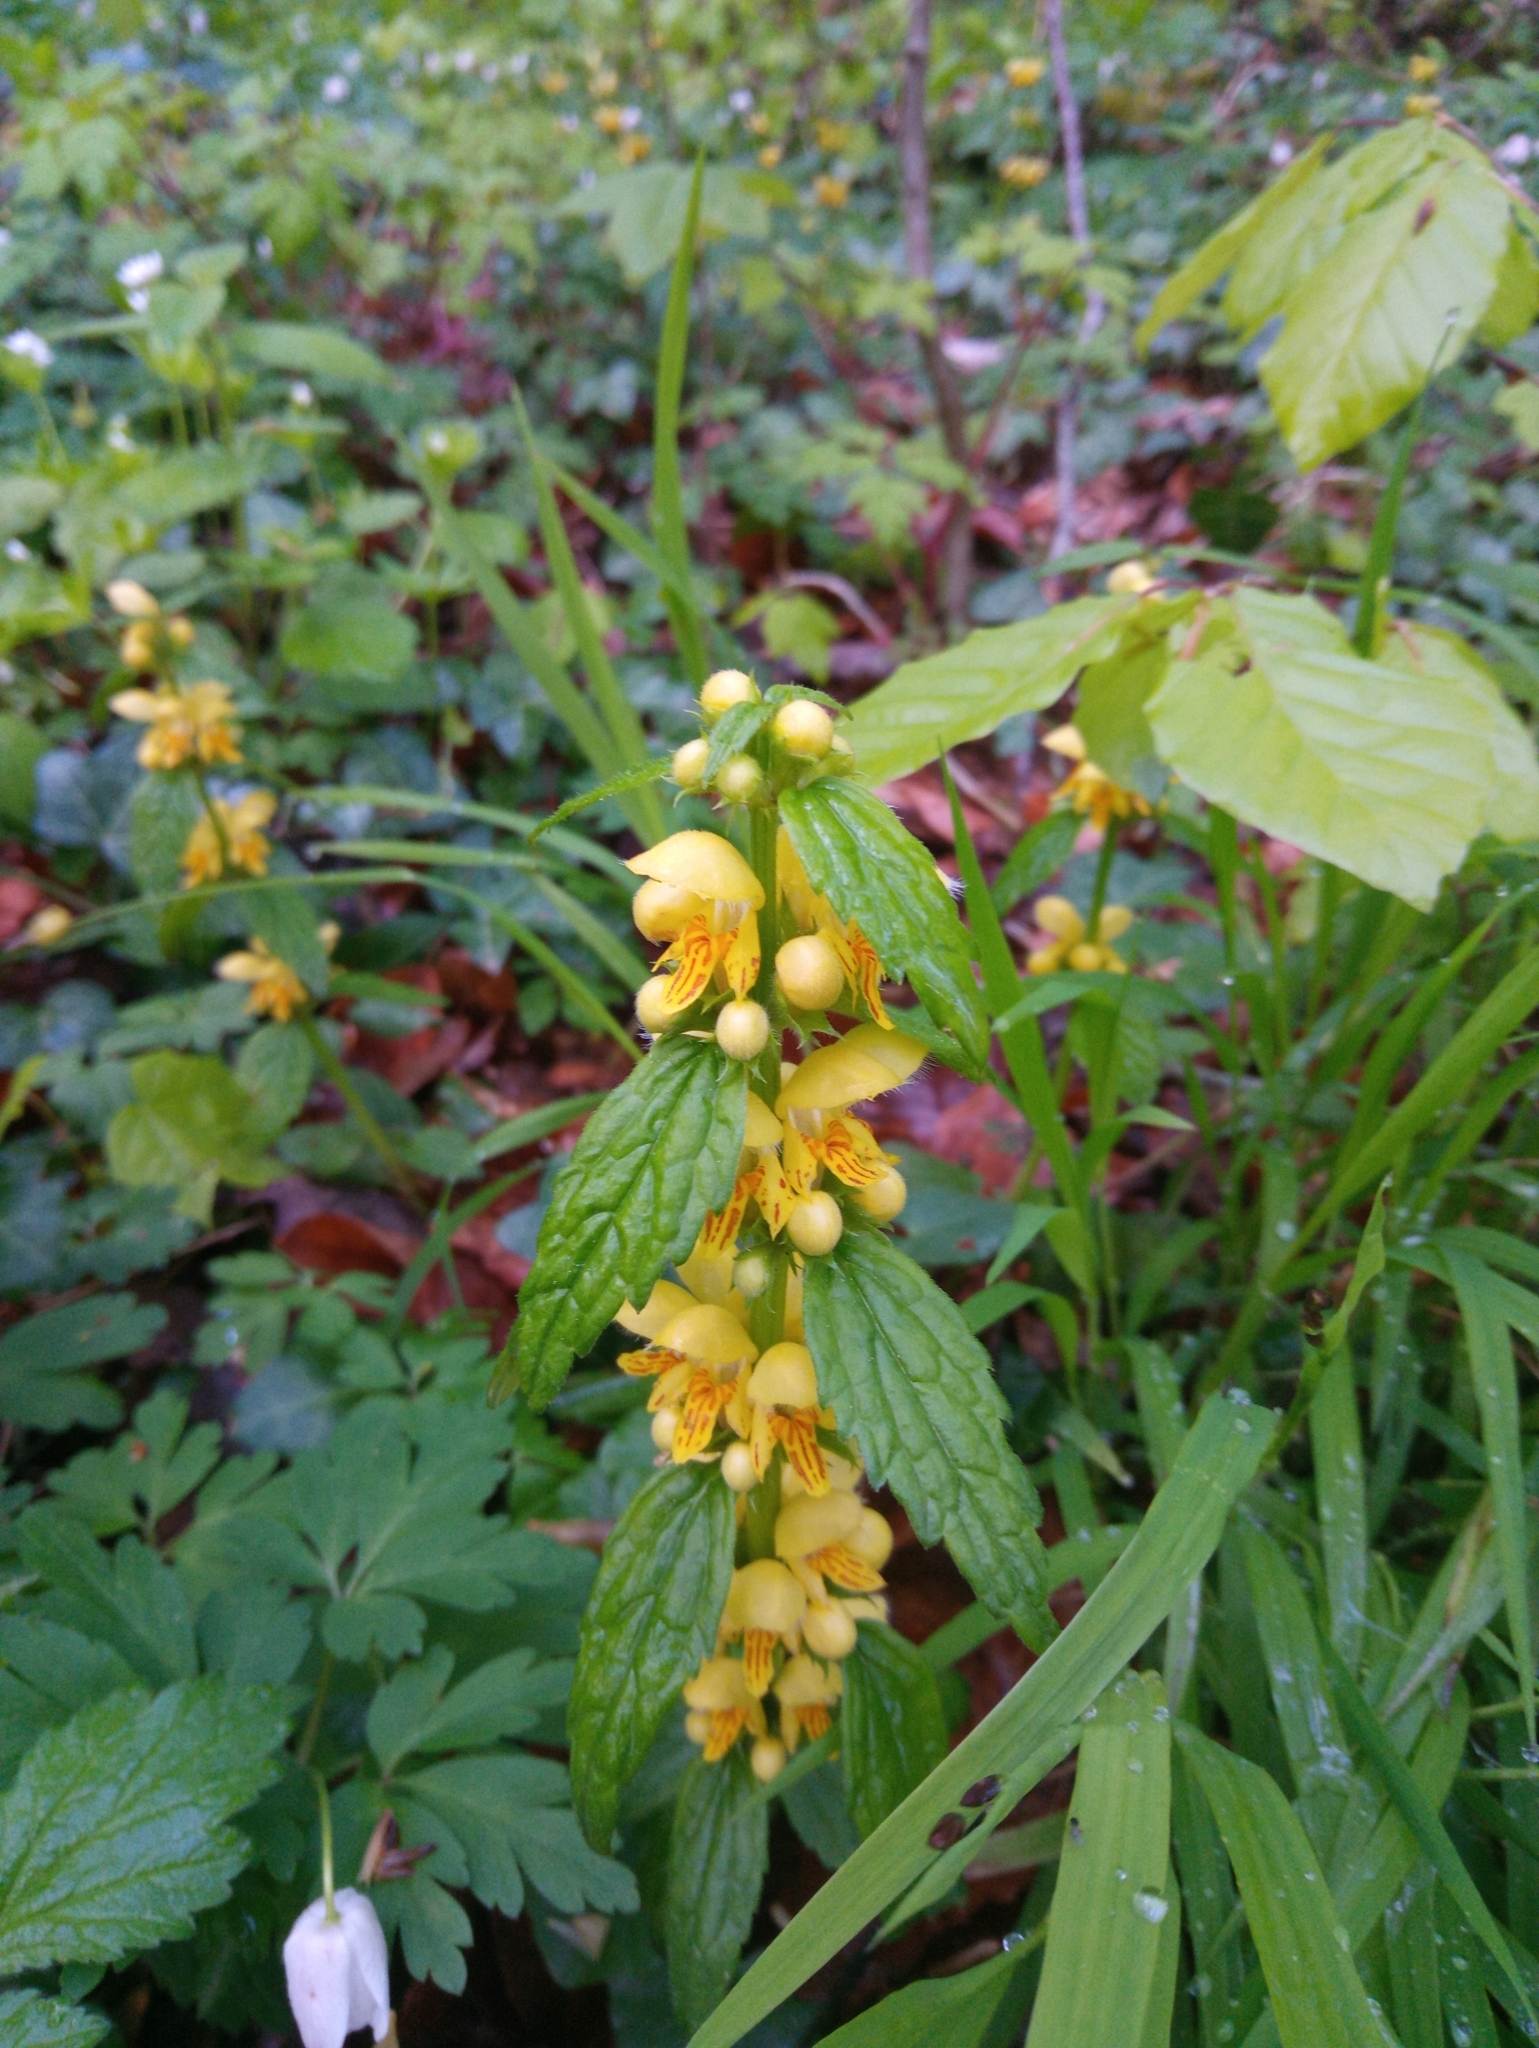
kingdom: Plantae
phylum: Tracheophyta
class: Magnoliopsida
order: Lamiales
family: Lamiaceae
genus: Lamium
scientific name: Lamium galeobdolon
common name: Yellow archangel
